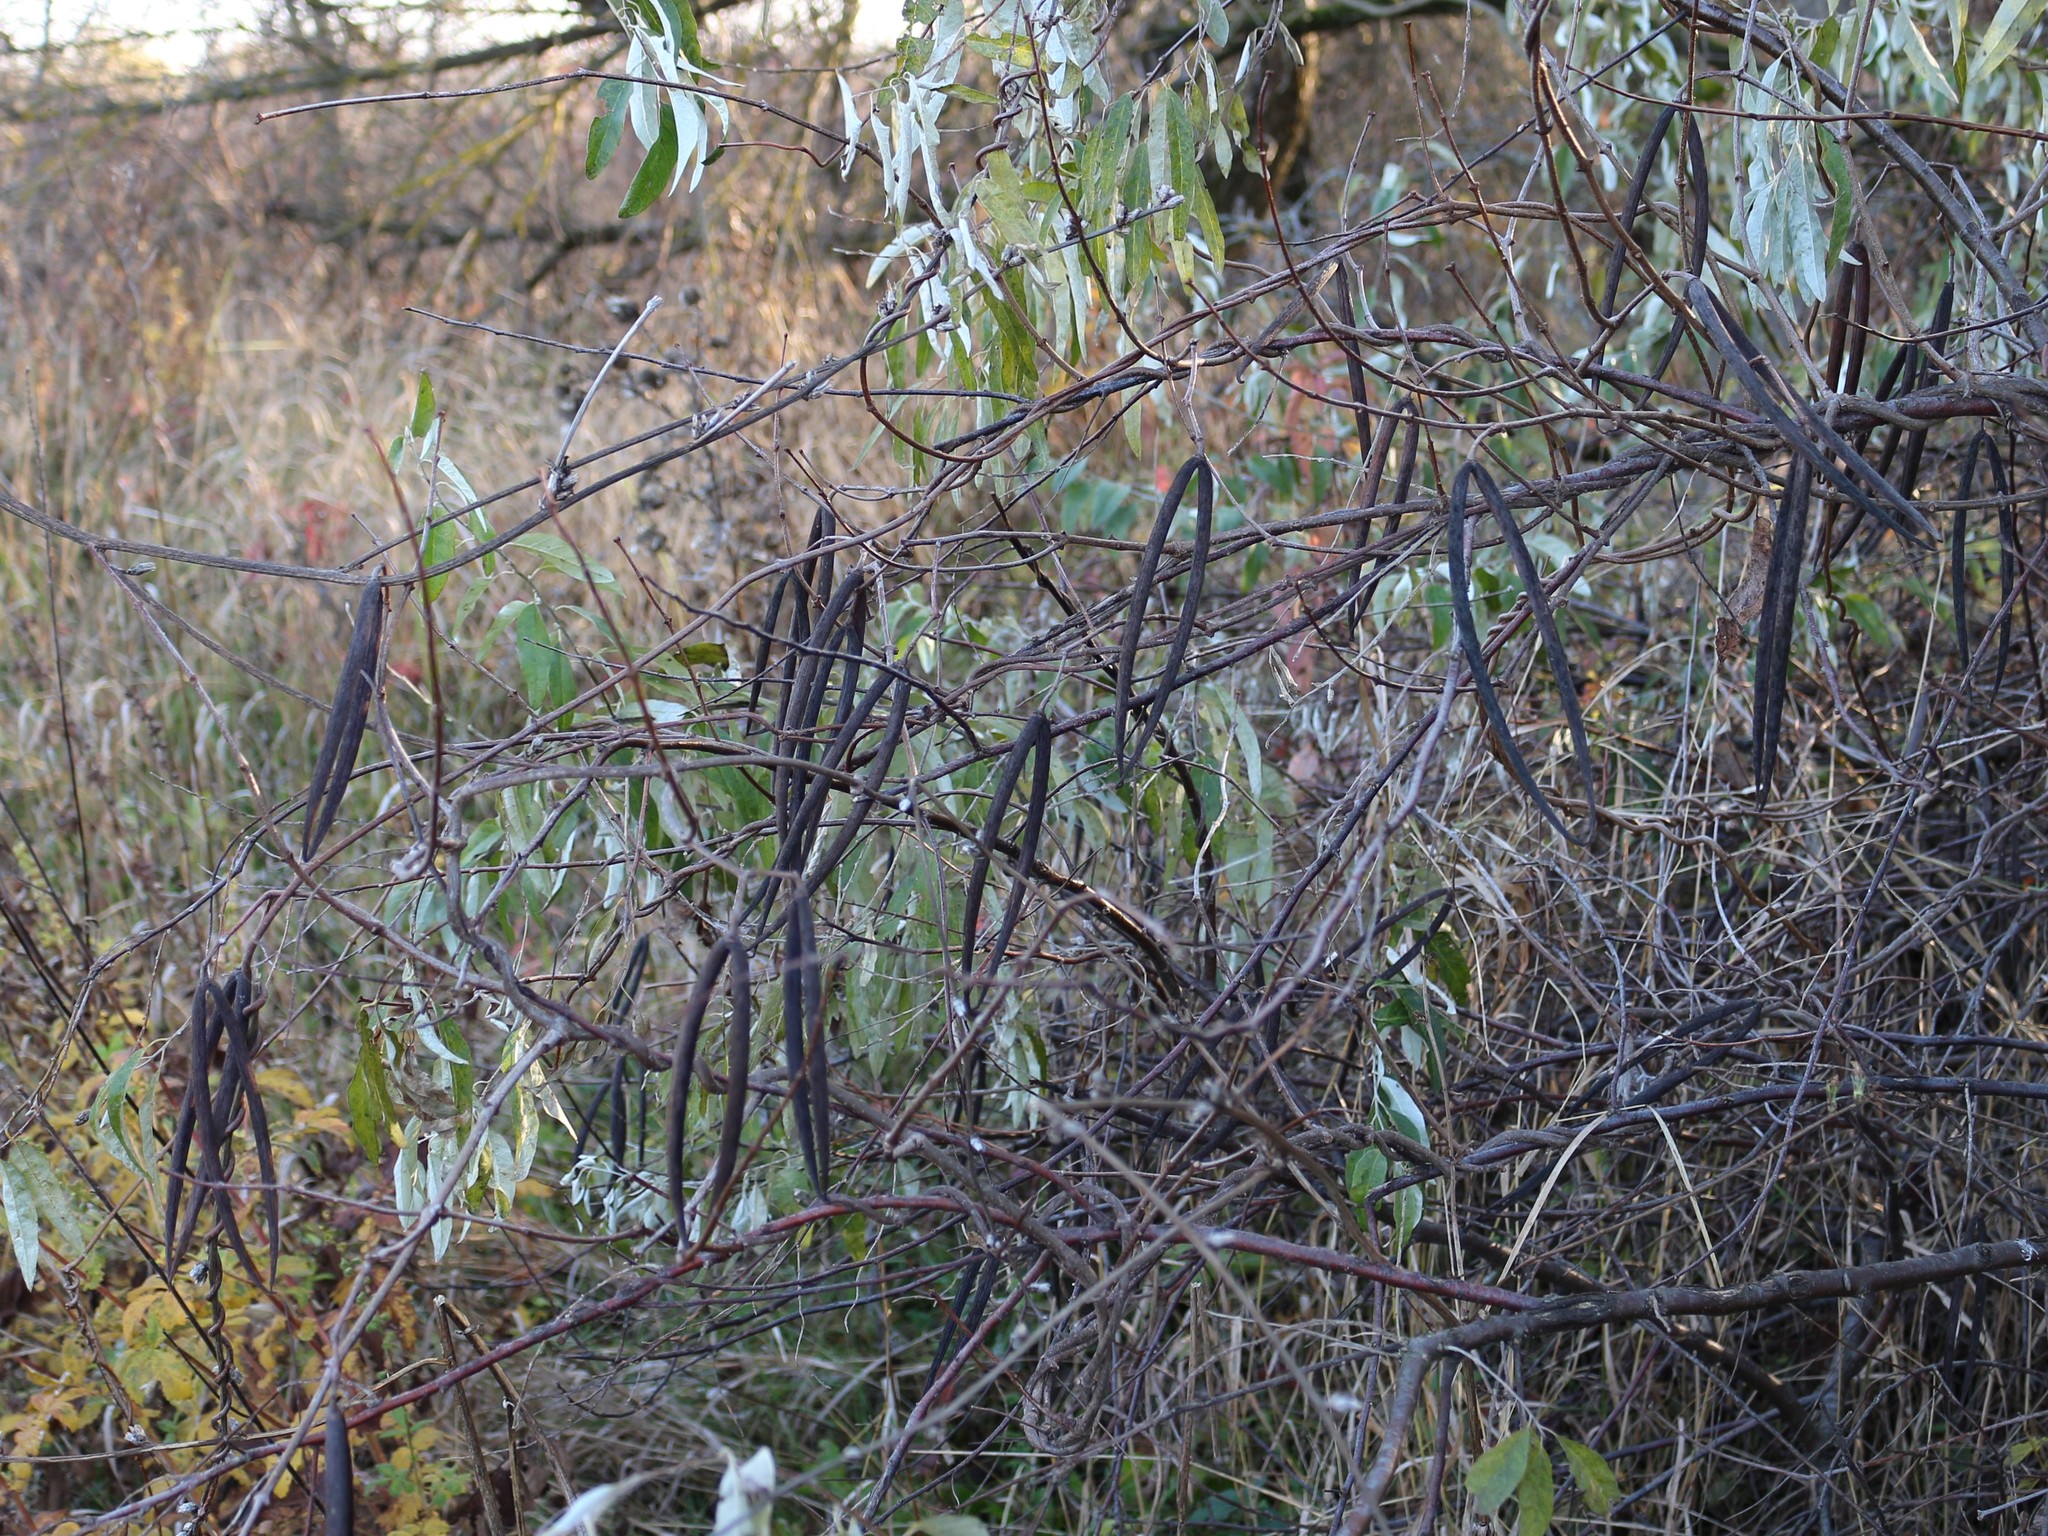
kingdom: Plantae
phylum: Tracheophyta
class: Magnoliopsida
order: Gentianales
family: Apocynaceae
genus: Periploca
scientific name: Periploca graeca
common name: Silkvine
